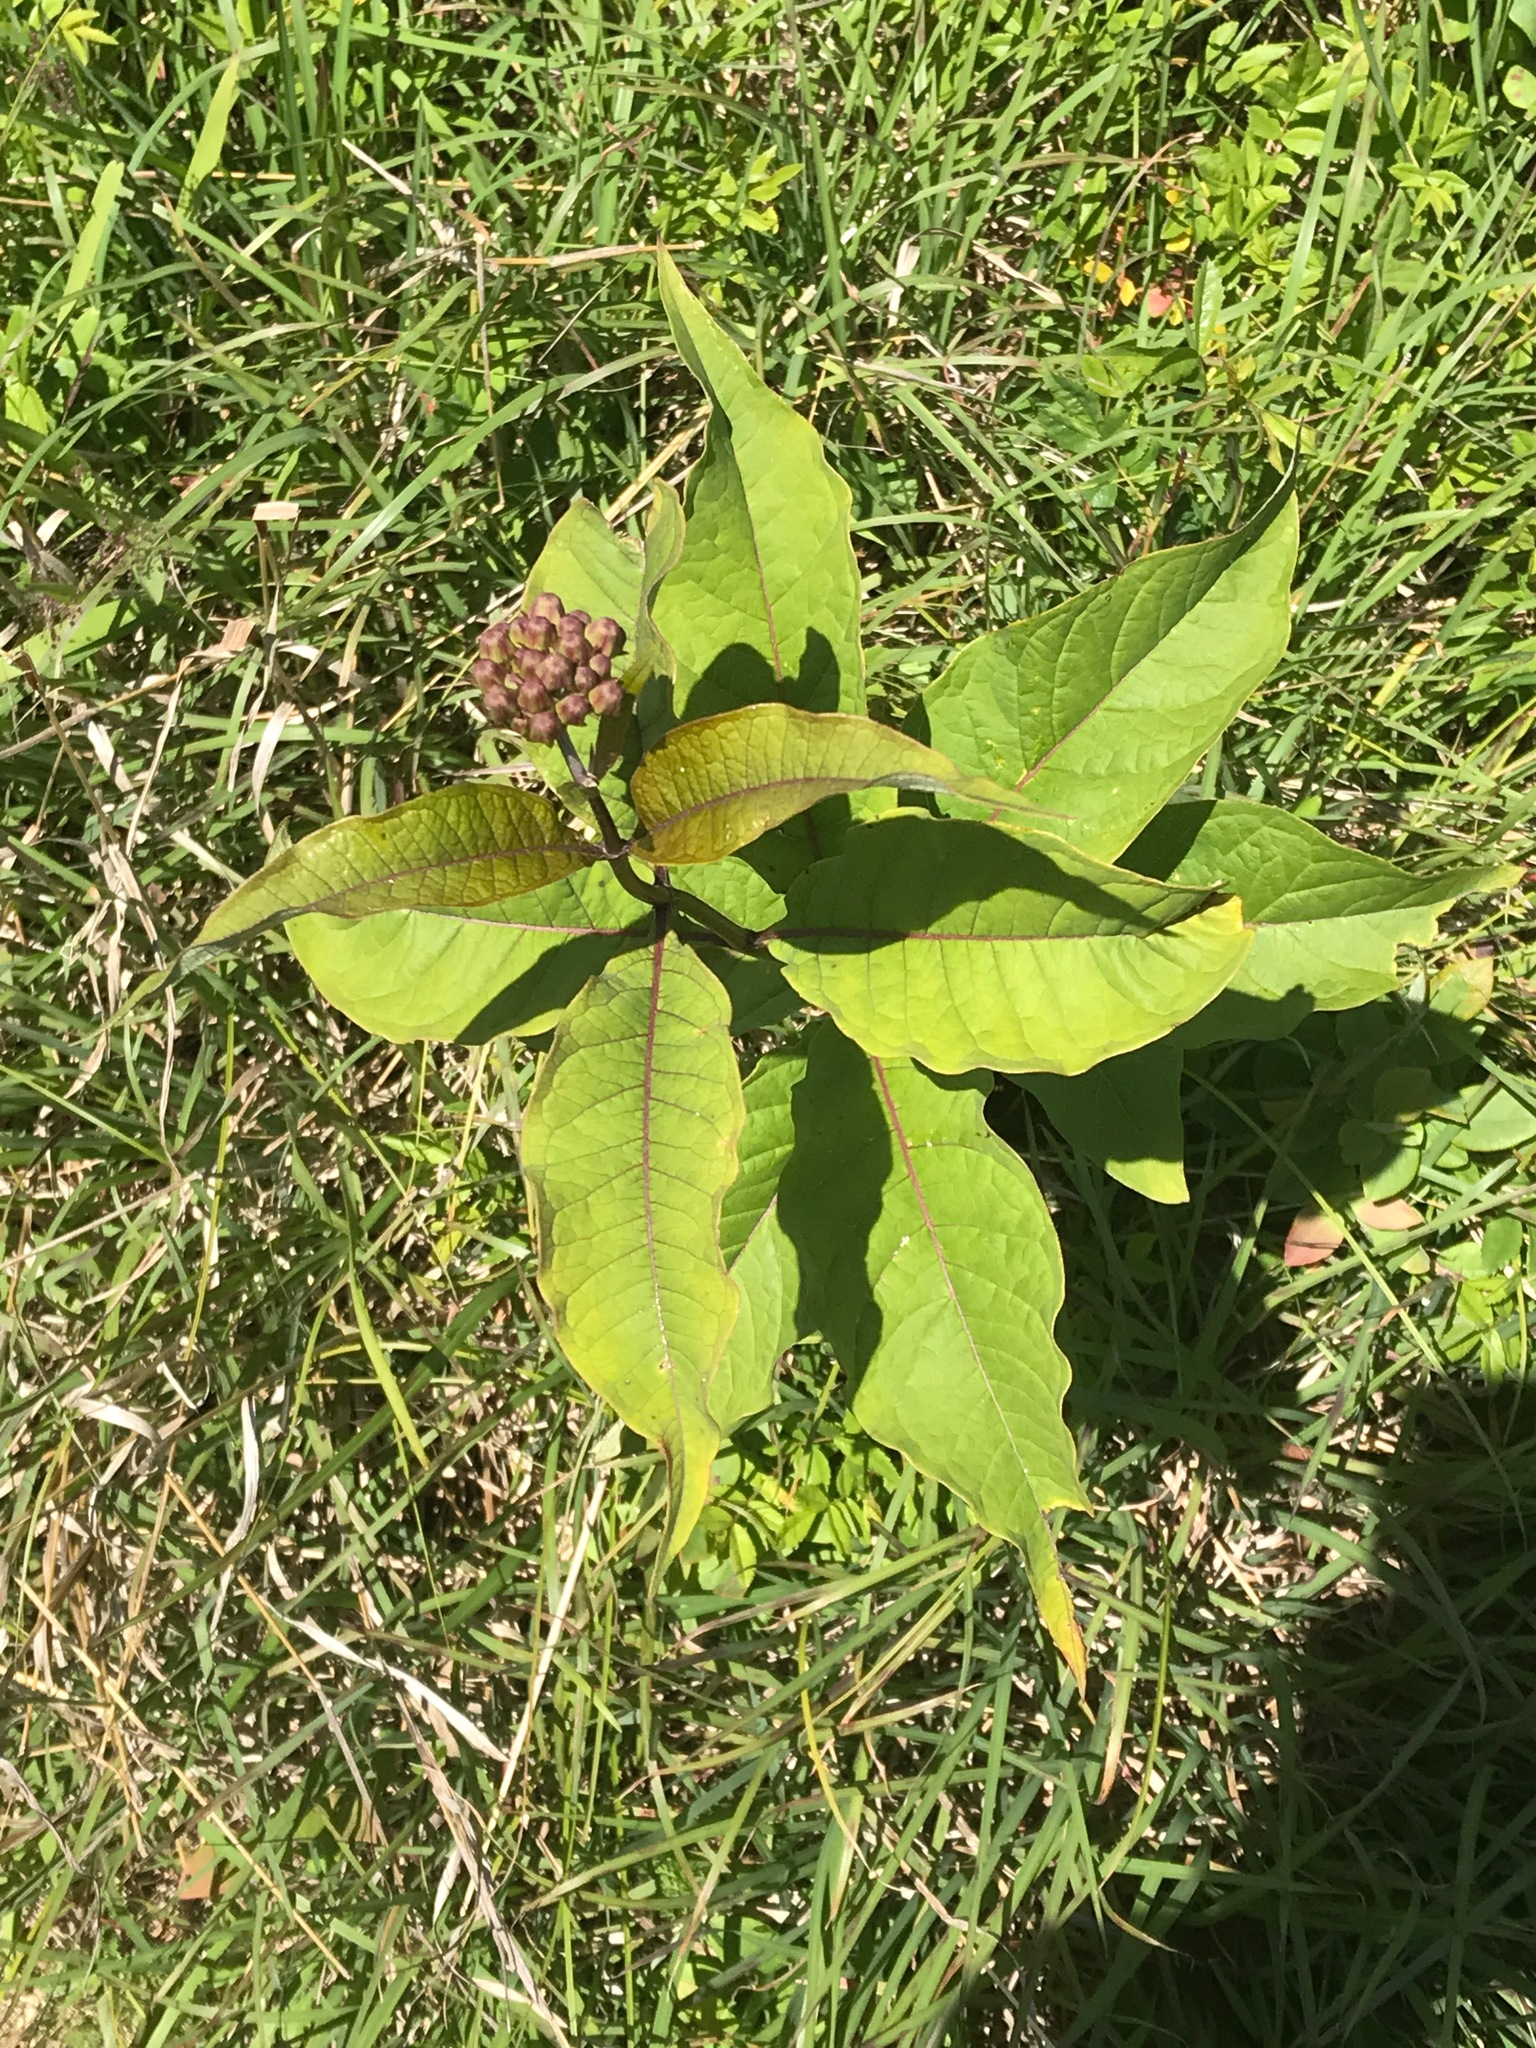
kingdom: Plantae
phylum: Tracheophyta
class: Magnoliopsida
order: Gentianales
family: Apocynaceae
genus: Asclepias
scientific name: Asclepias exaltata
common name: Poke milkweed
